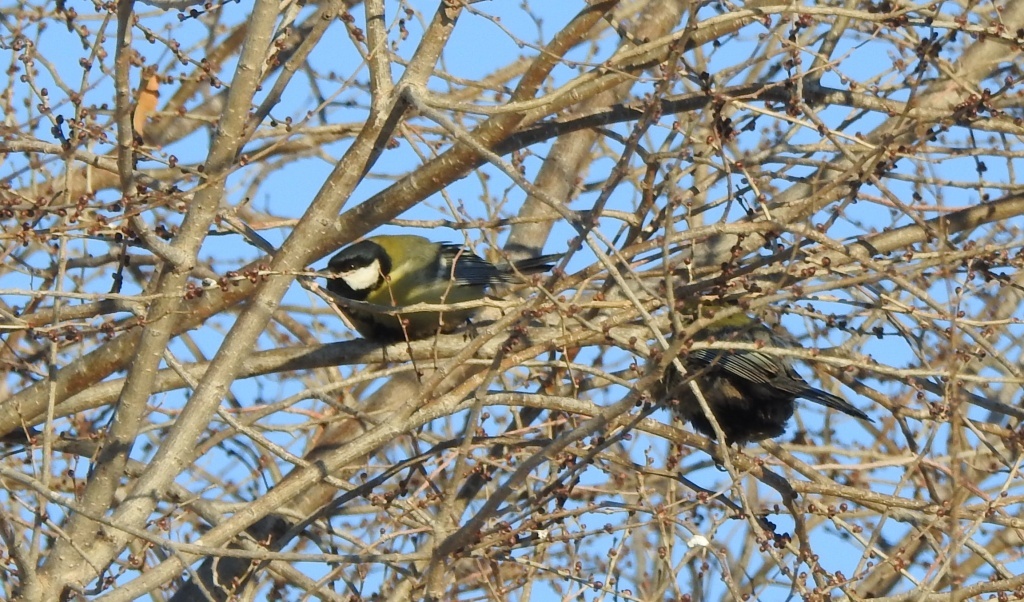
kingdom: Animalia
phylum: Chordata
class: Aves
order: Passeriformes
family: Paridae
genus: Parus
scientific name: Parus major
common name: Great tit
